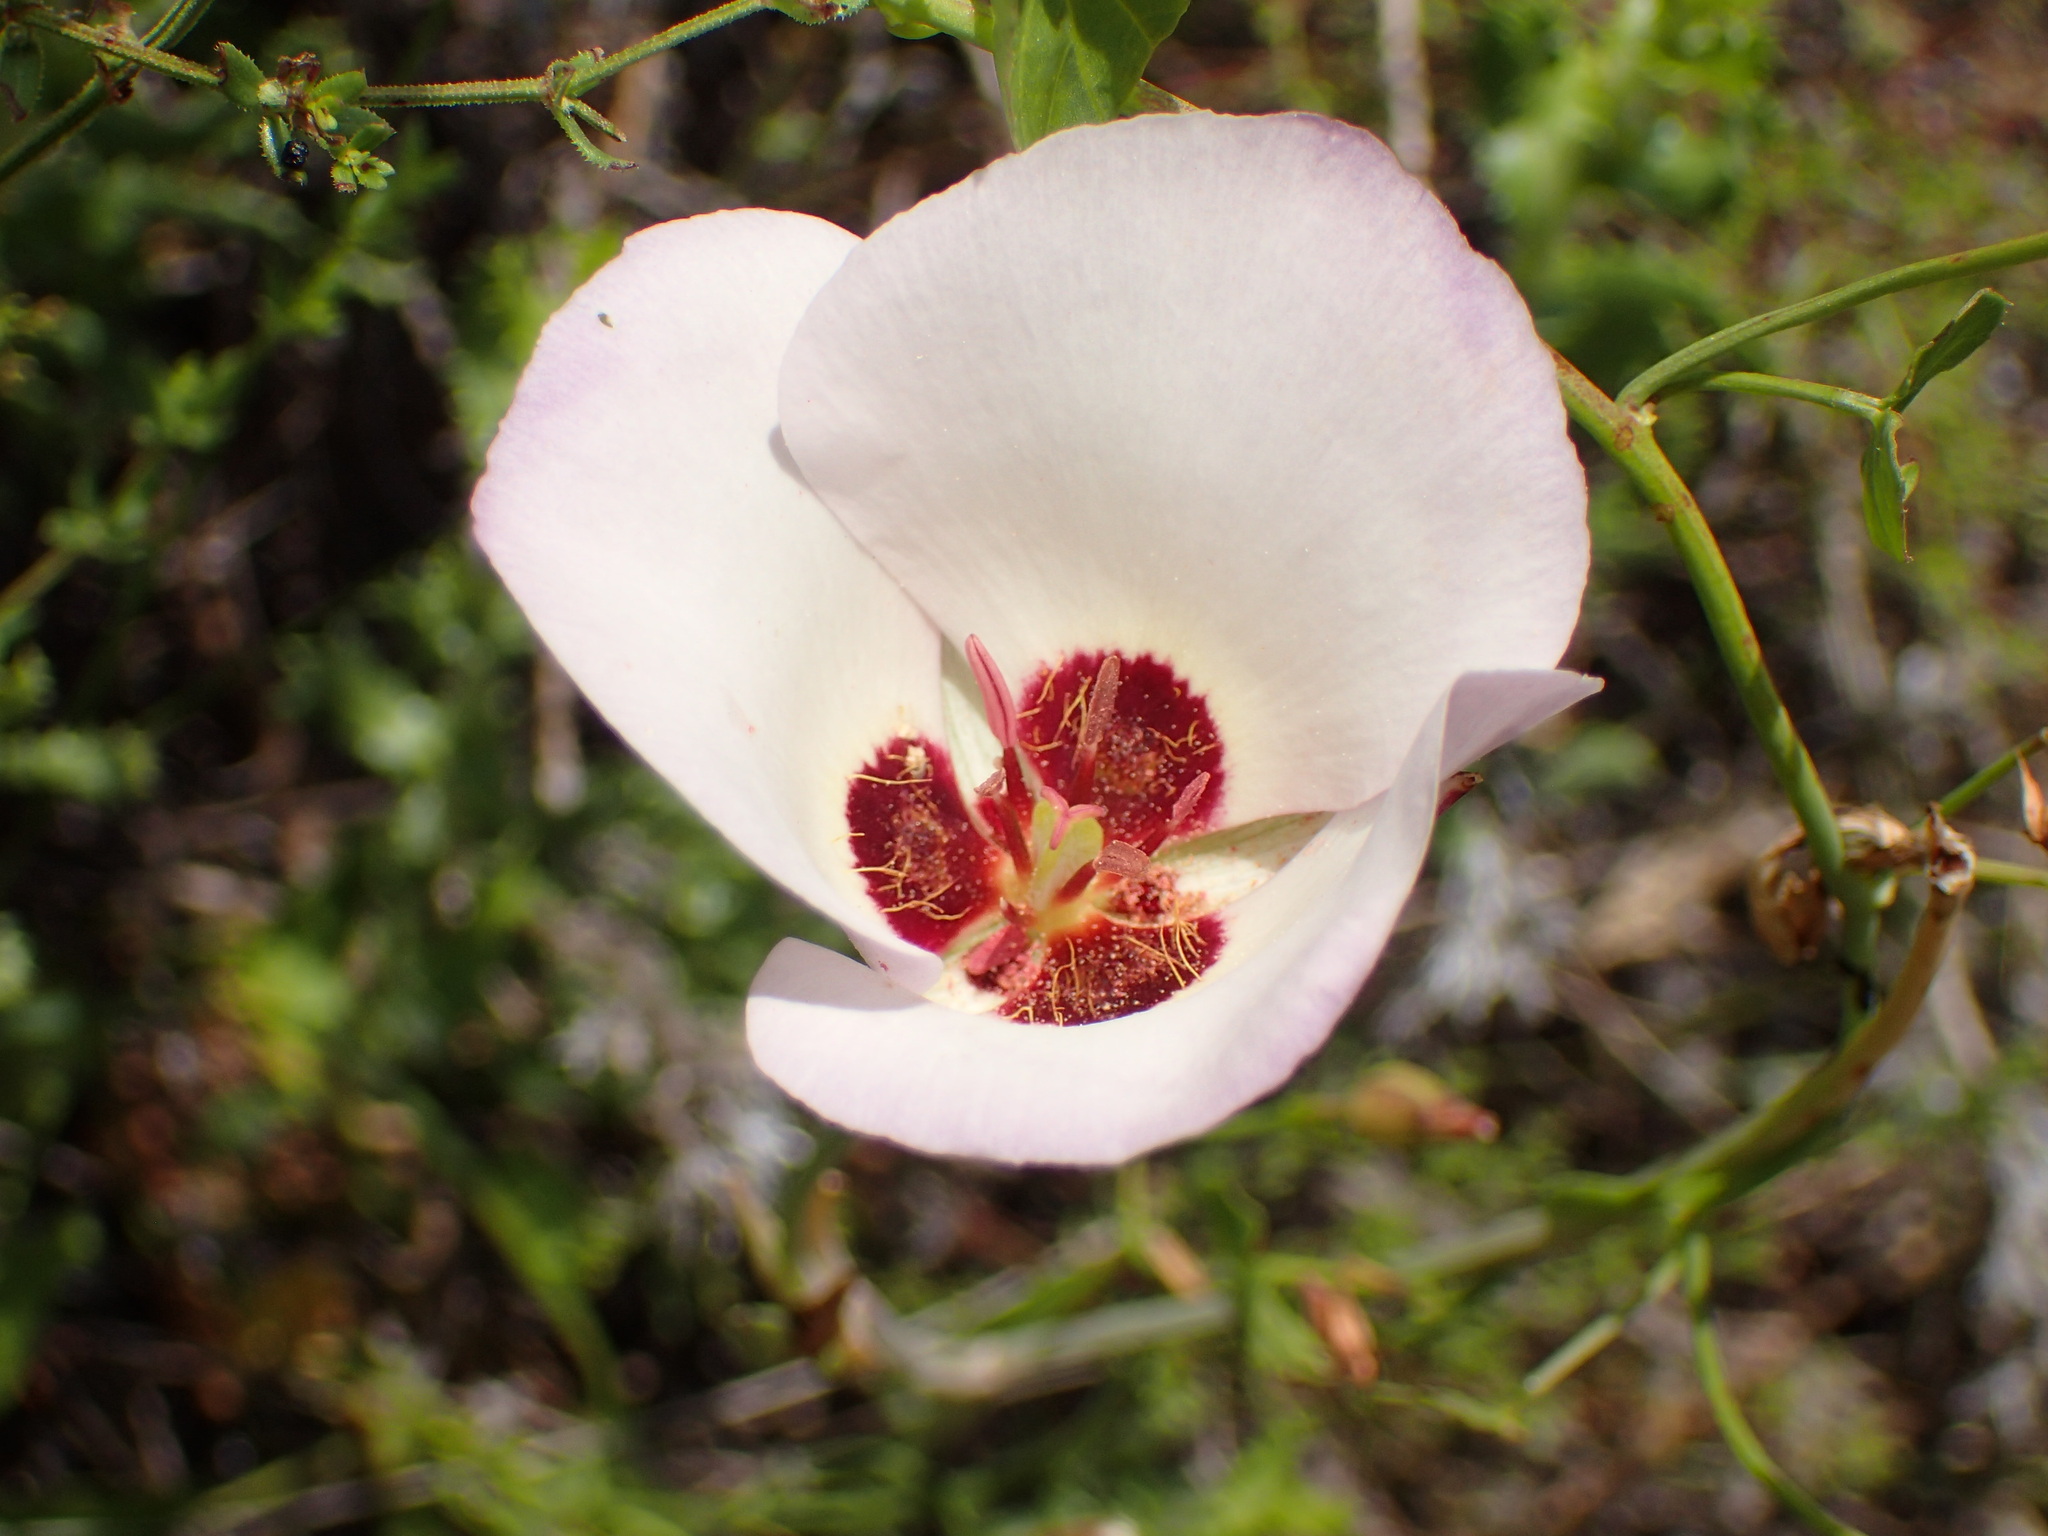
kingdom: Plantae
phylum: Tracheophyta
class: Liliopsida
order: Liliales
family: Liliaceae
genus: Calochortus
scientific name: Calochortus catalinae
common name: Catalina mariposa-lily
